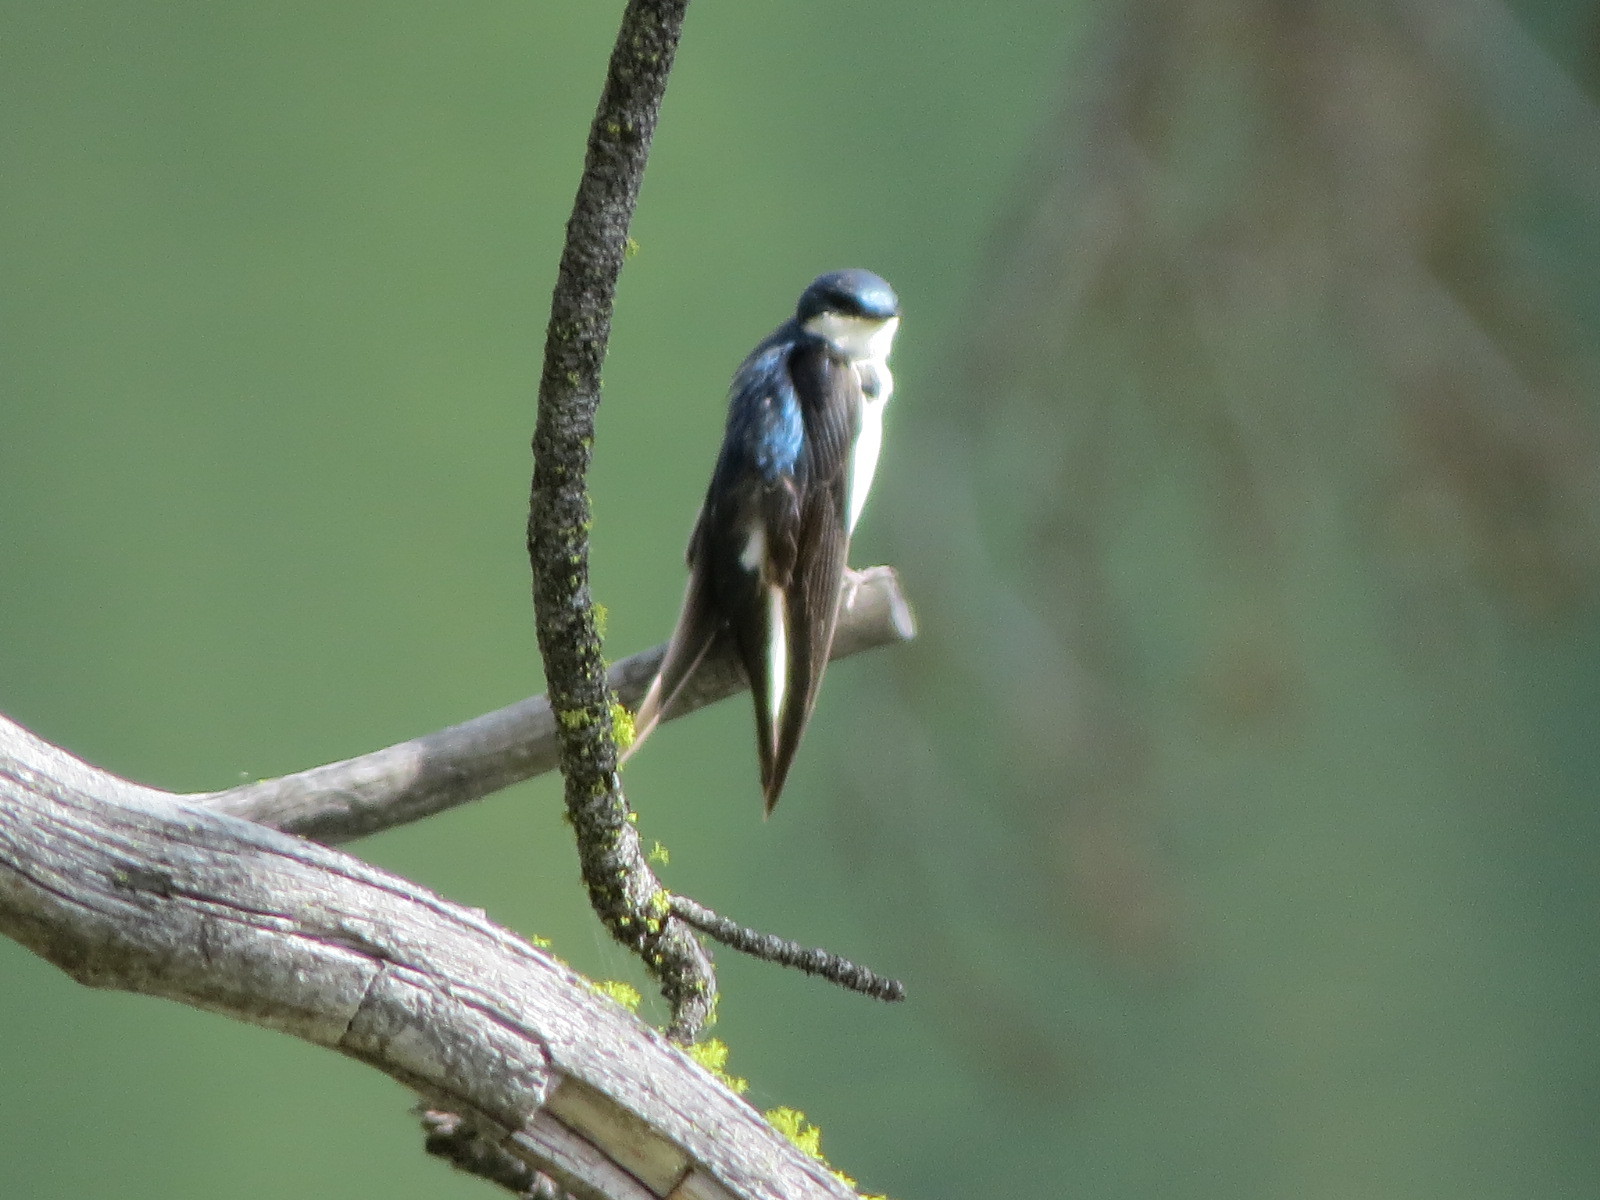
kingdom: Animalia
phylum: Chordata
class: Aves
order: Passeriformes
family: Hirundinidae
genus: Tachycineta
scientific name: Tachycineta bicolor
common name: Tree swallow
